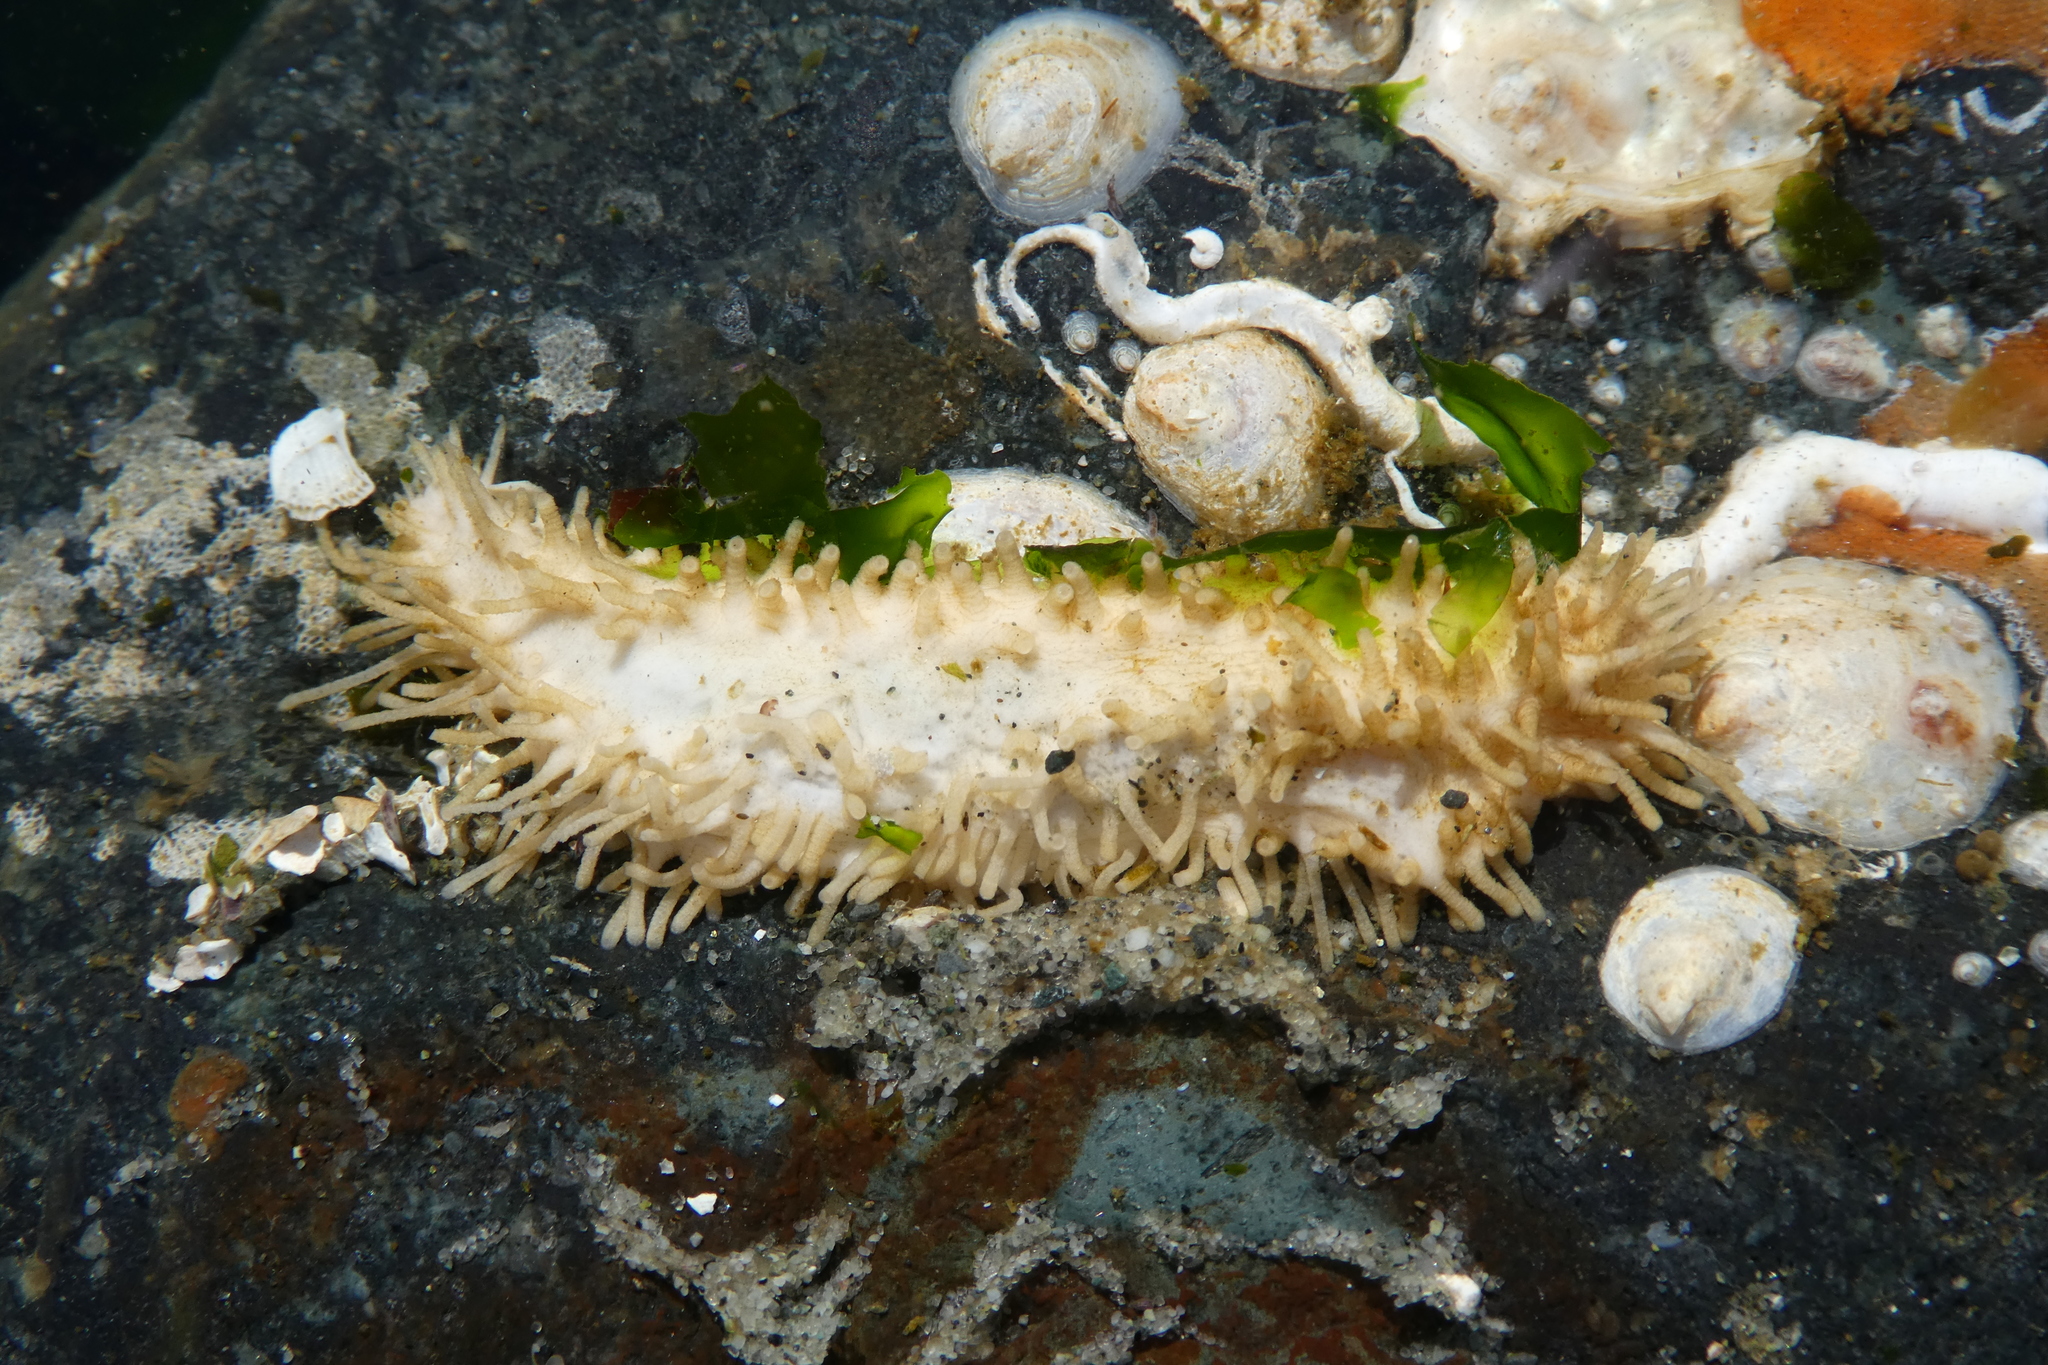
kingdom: Animalia
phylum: Echinodermata
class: Holothuroidea
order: Dendrochirotida
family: Sclerodactylidae
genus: Eupentacta
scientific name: Eupentacta quinquesemita
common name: Pentamerous sea cucumber
